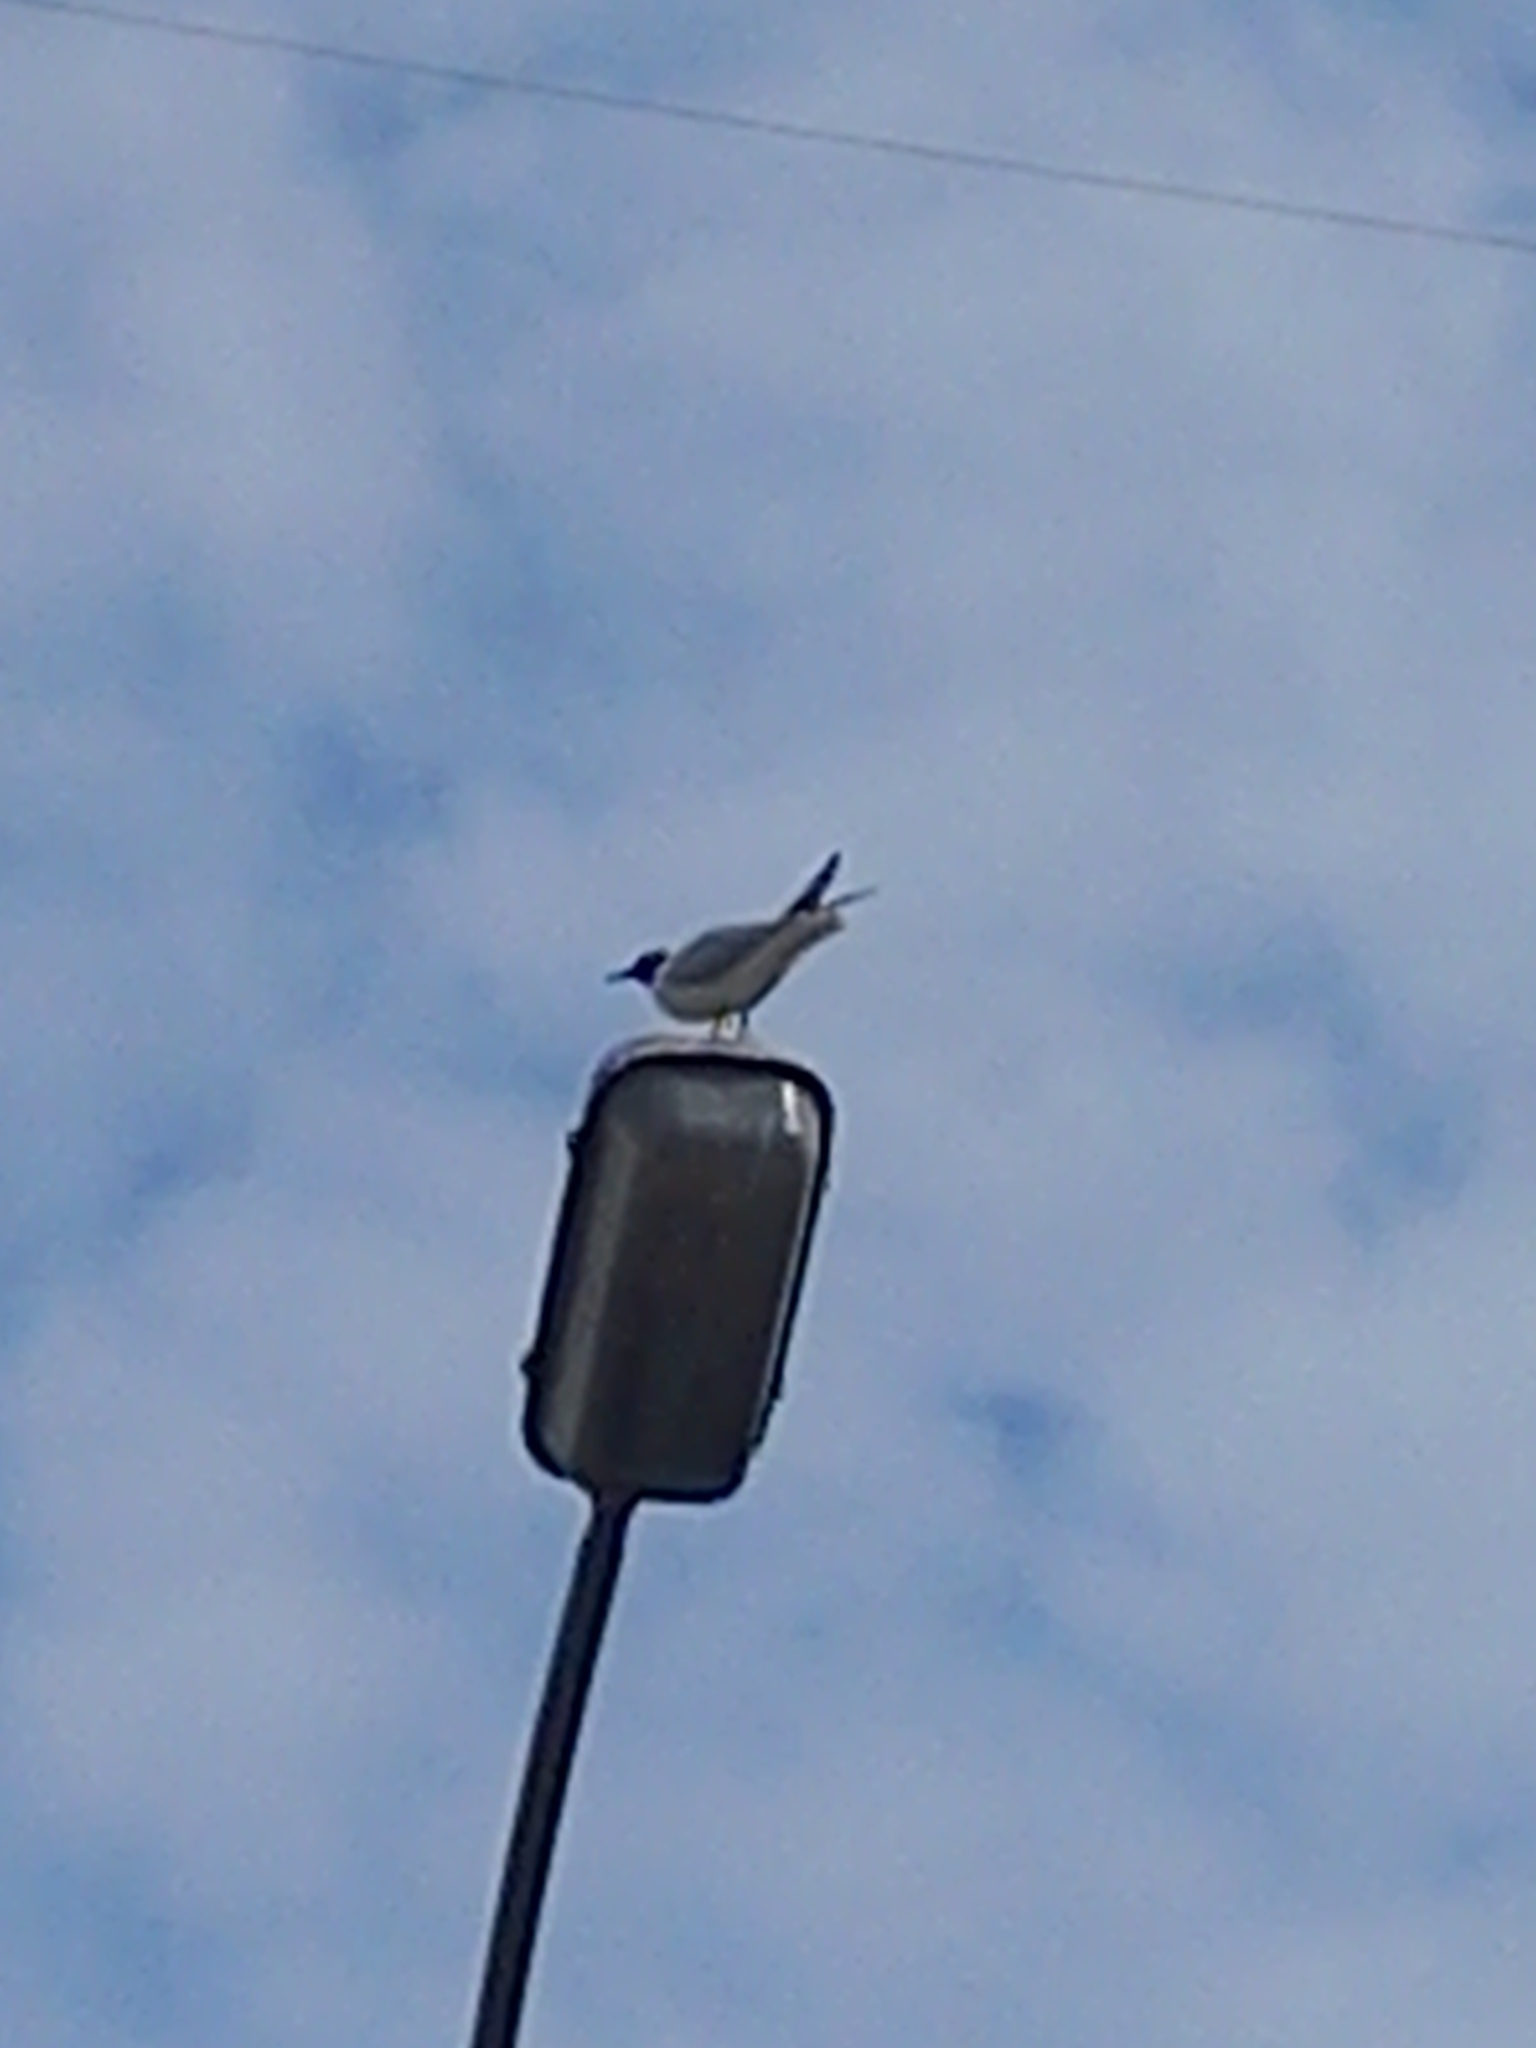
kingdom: Animalia
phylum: Chordata
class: Aves
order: Charadriiformes
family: Laridae
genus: Chroicocephalus
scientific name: Chroicocephalus ridibundus
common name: Black-headed gull
